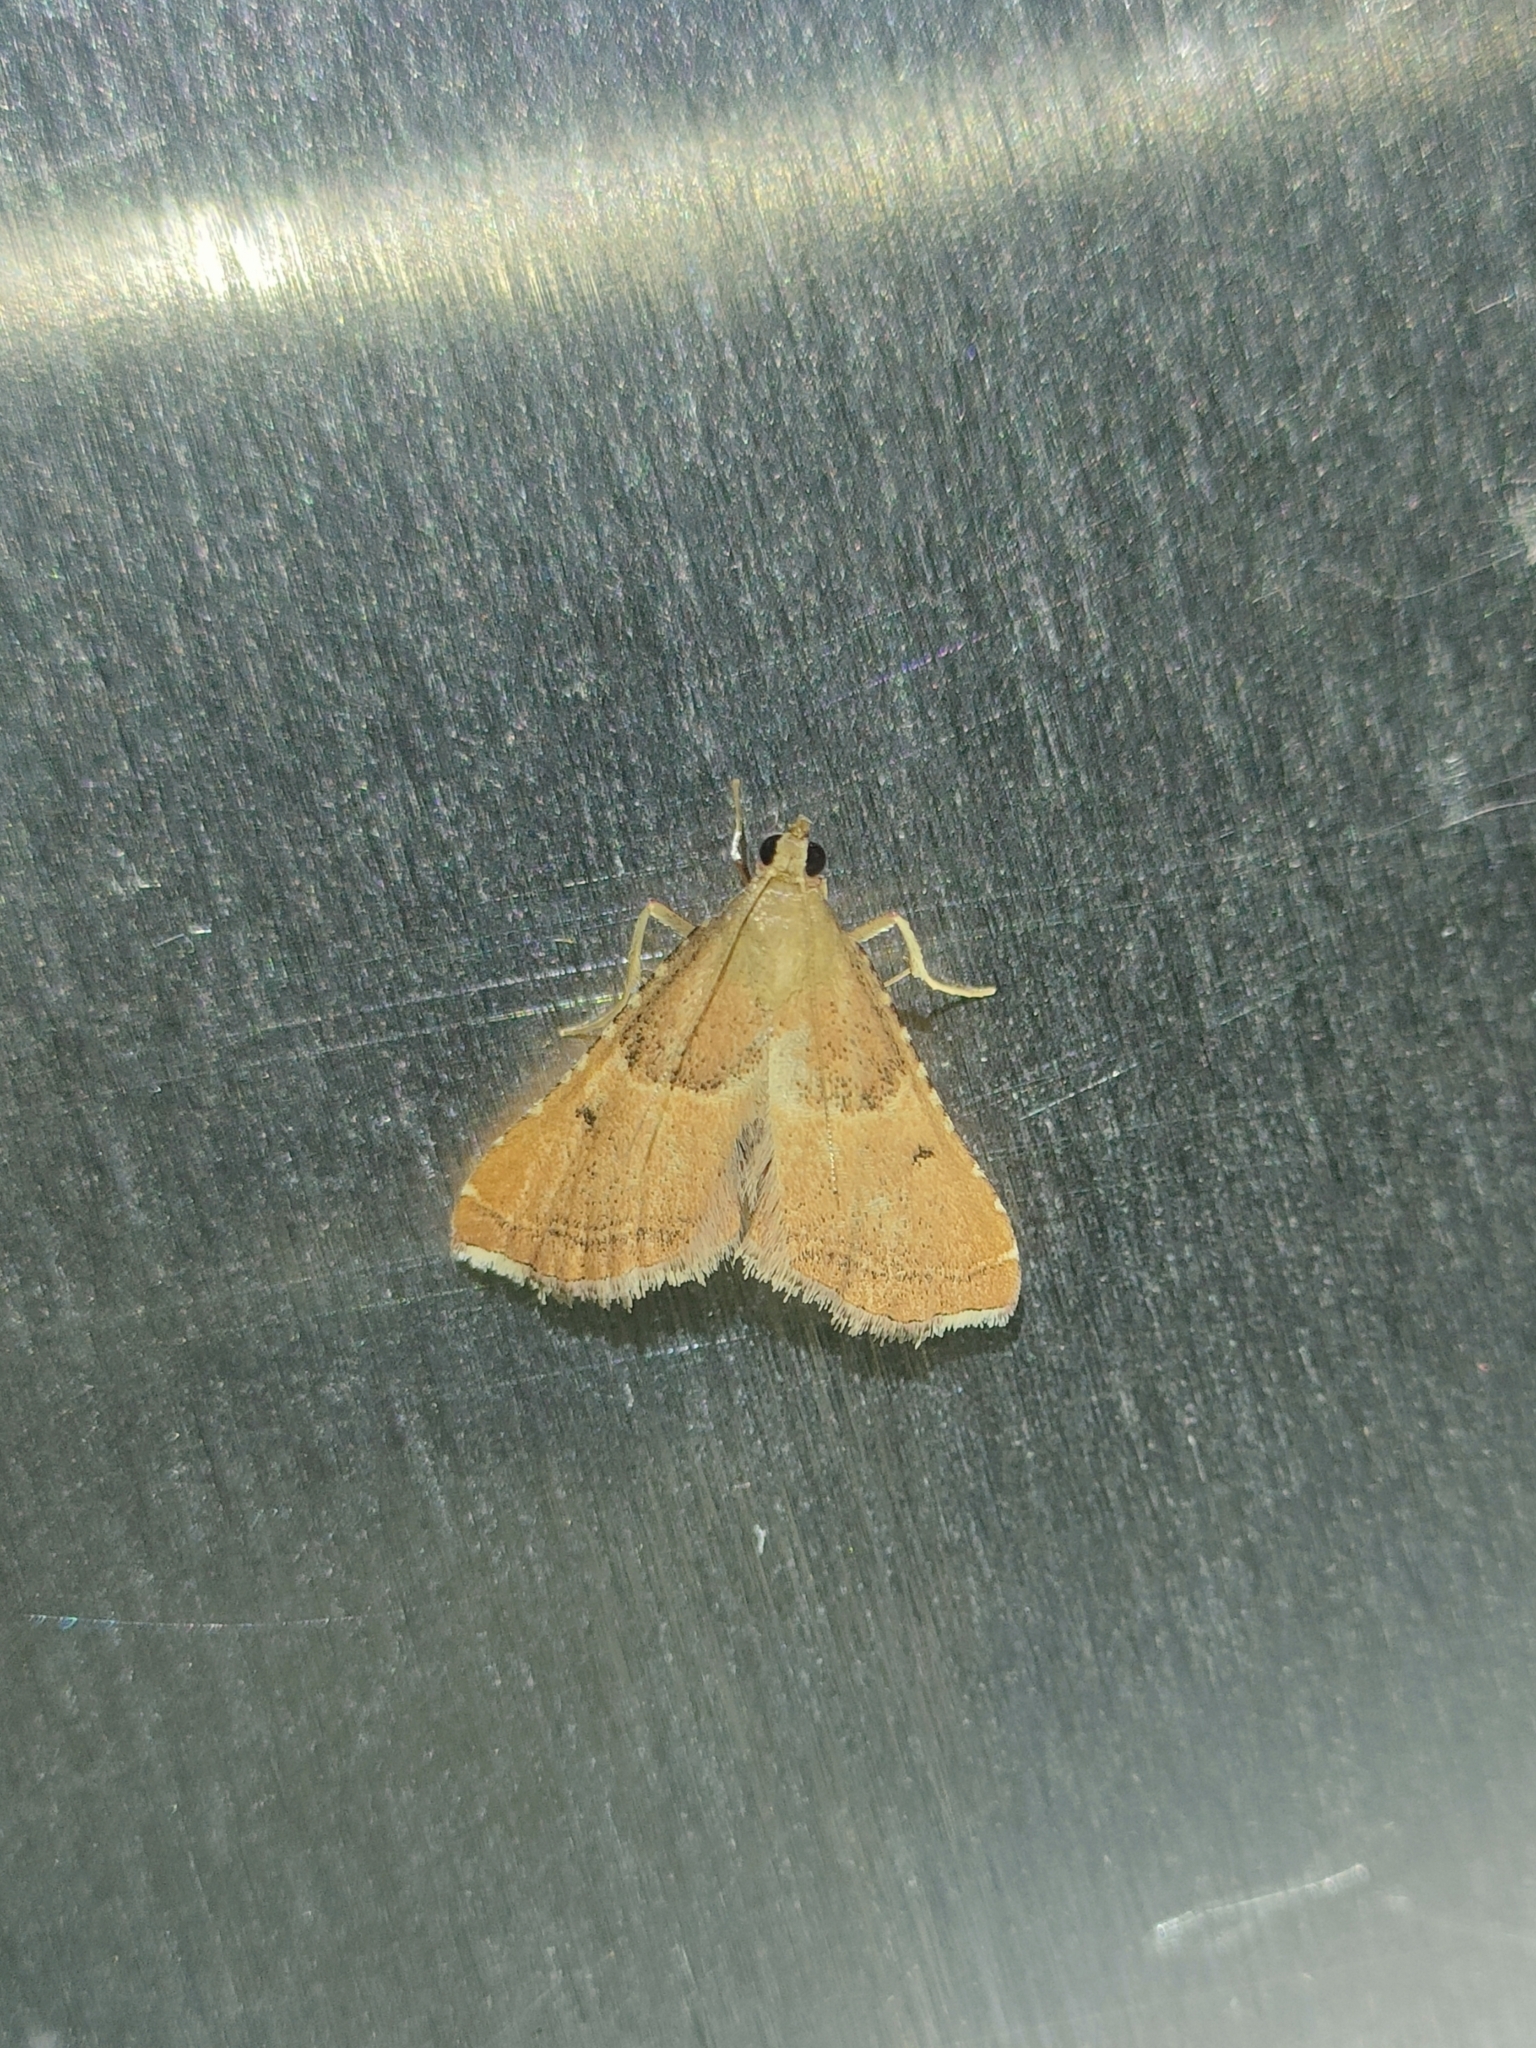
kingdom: Animalia
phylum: Arthropoda
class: Insecta
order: Lepidoptera
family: Pyralidae
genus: Endotricha
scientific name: Endotricha flammealis
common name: Rosy tabby
